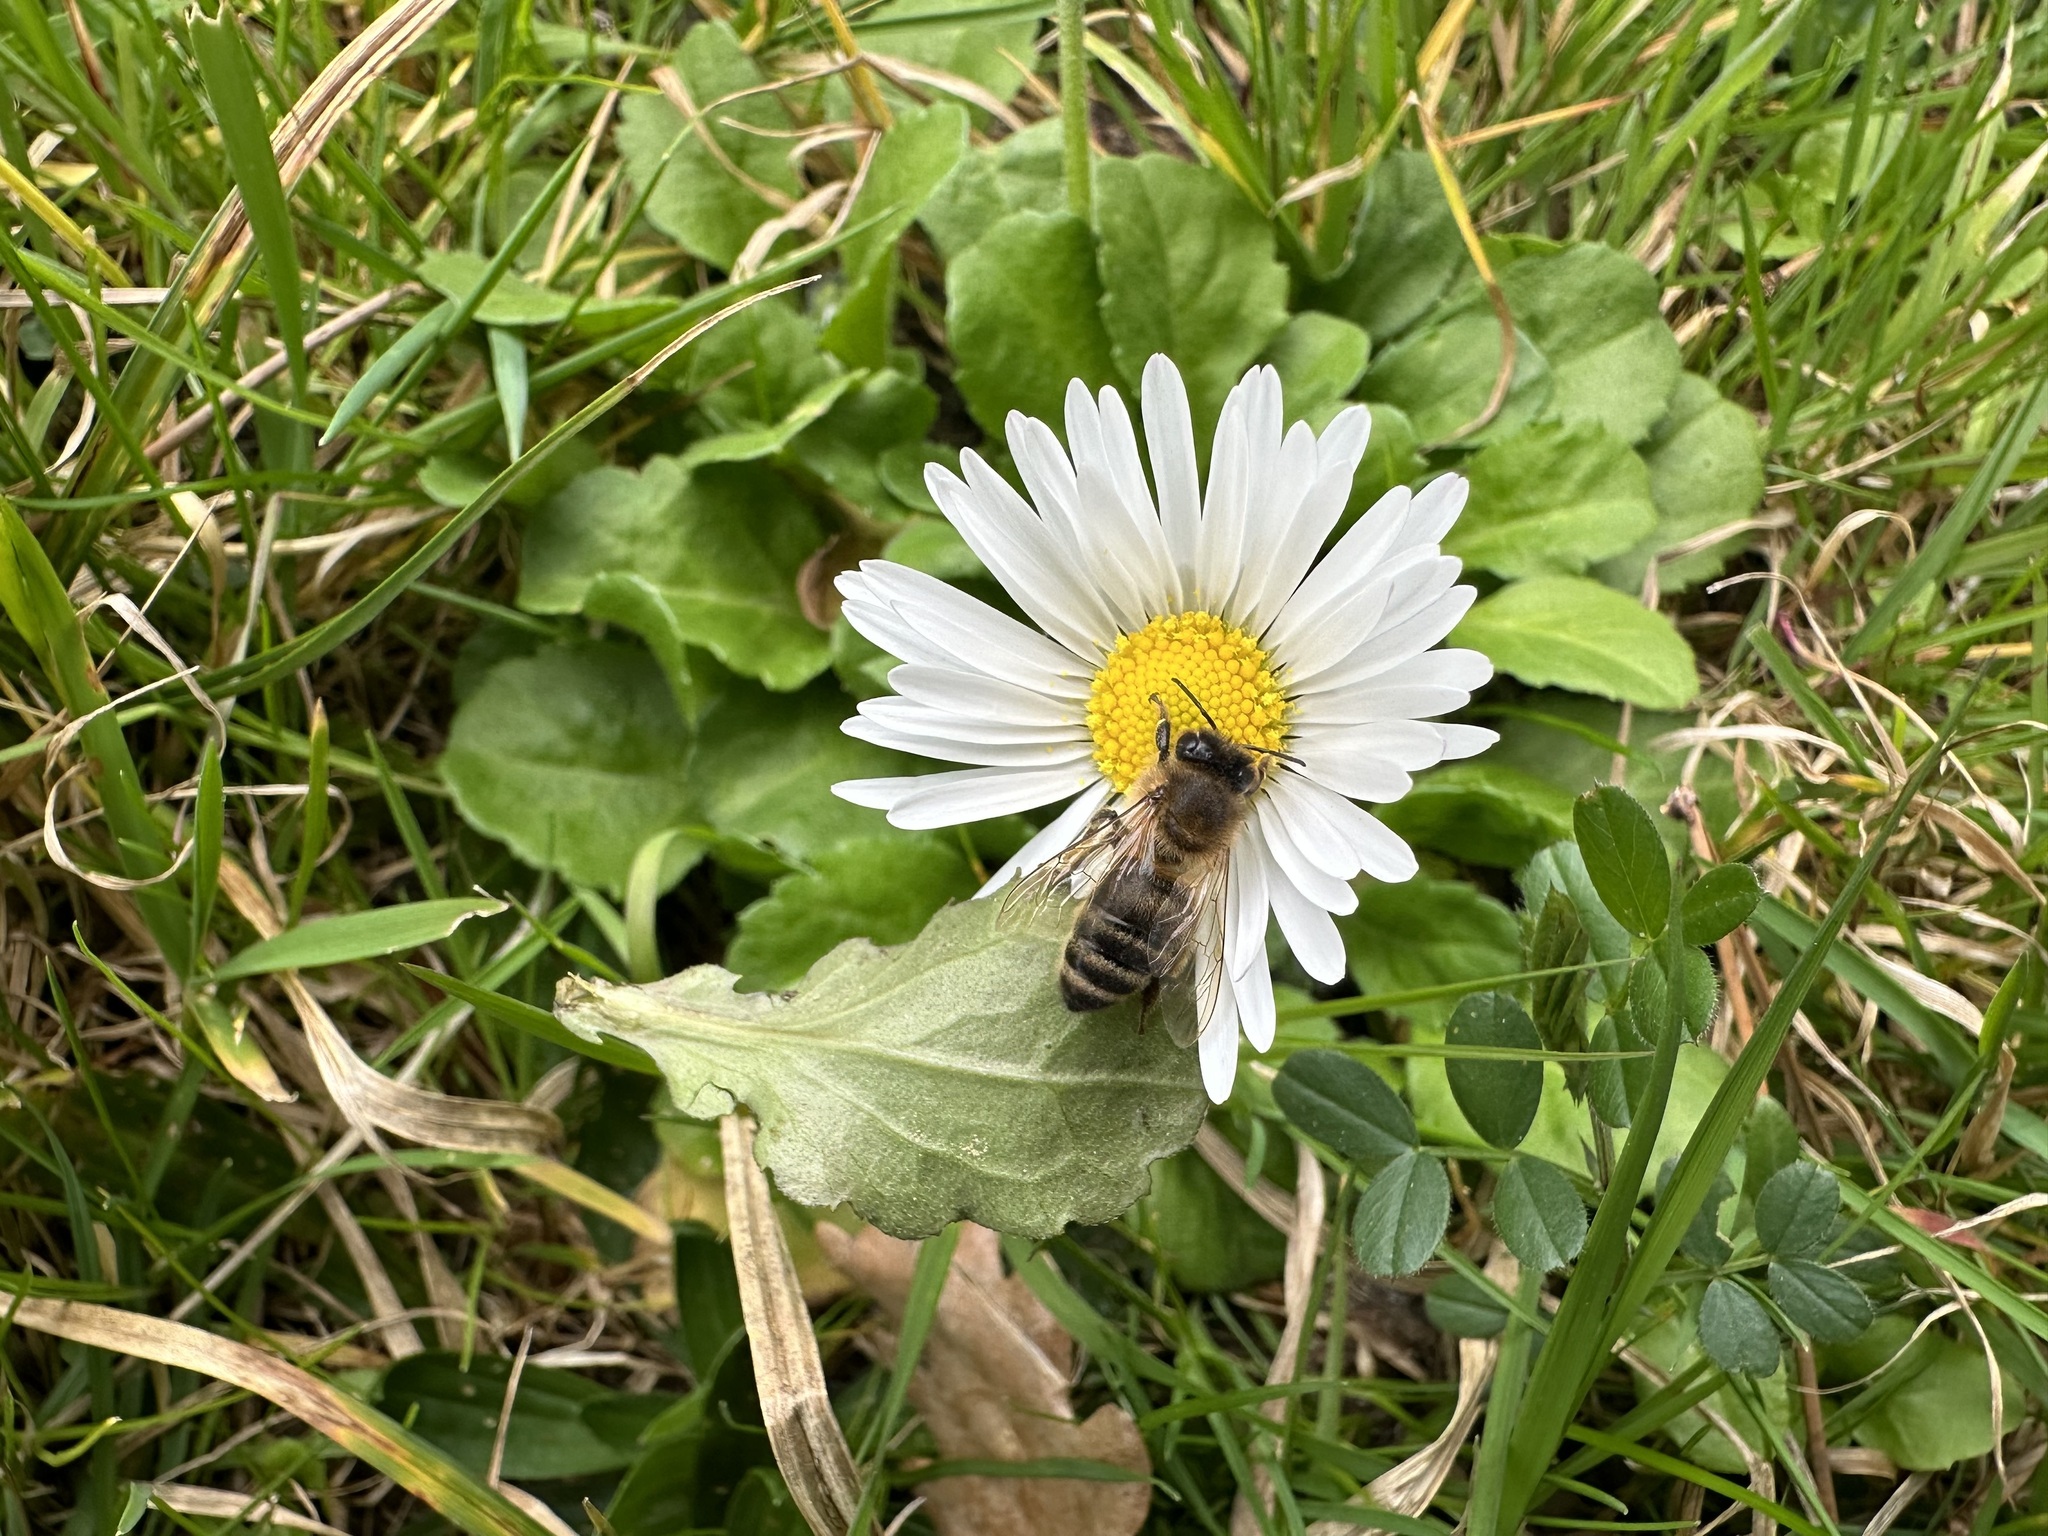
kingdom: Animalia
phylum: Arthropoda
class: Insecta
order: Hymenoptera
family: Apidae
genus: Apis
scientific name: Apis mellifera
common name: Honey bee
